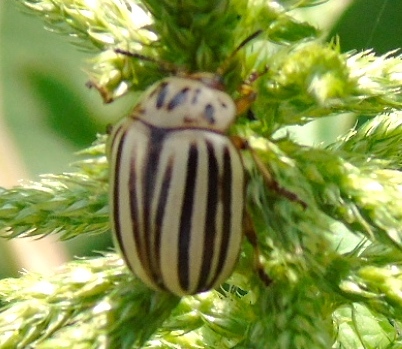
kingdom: Animalia
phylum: Arthropoda
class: Insecta
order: Coleoptera
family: Chrysomelidae
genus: Leptinotarsa
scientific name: Leptinotarsa decemlineata
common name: Colorado potato beetle
